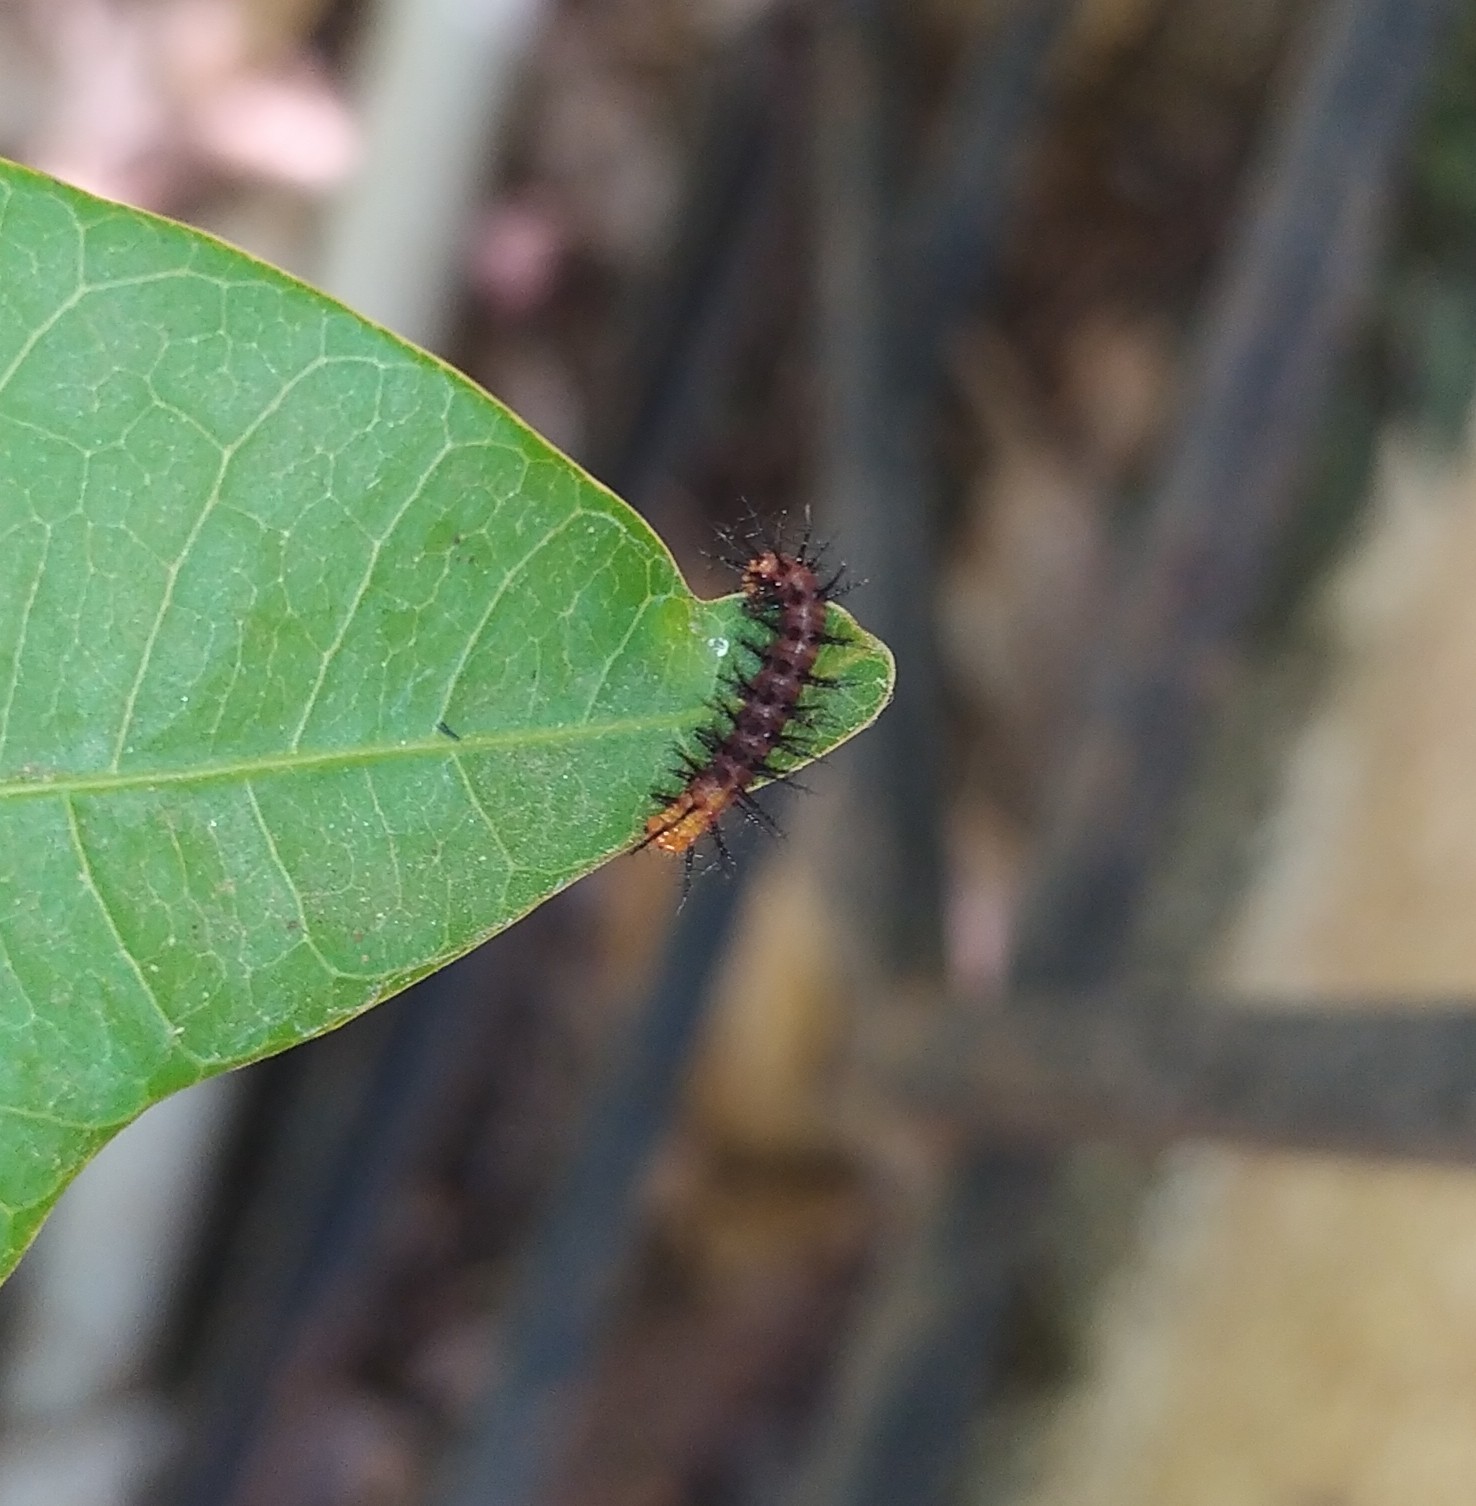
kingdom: Animalia
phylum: Arthropoda
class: Insecta
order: Lepidoptera
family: Nymphalidae
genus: Acraea
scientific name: Acraea terpsicore
